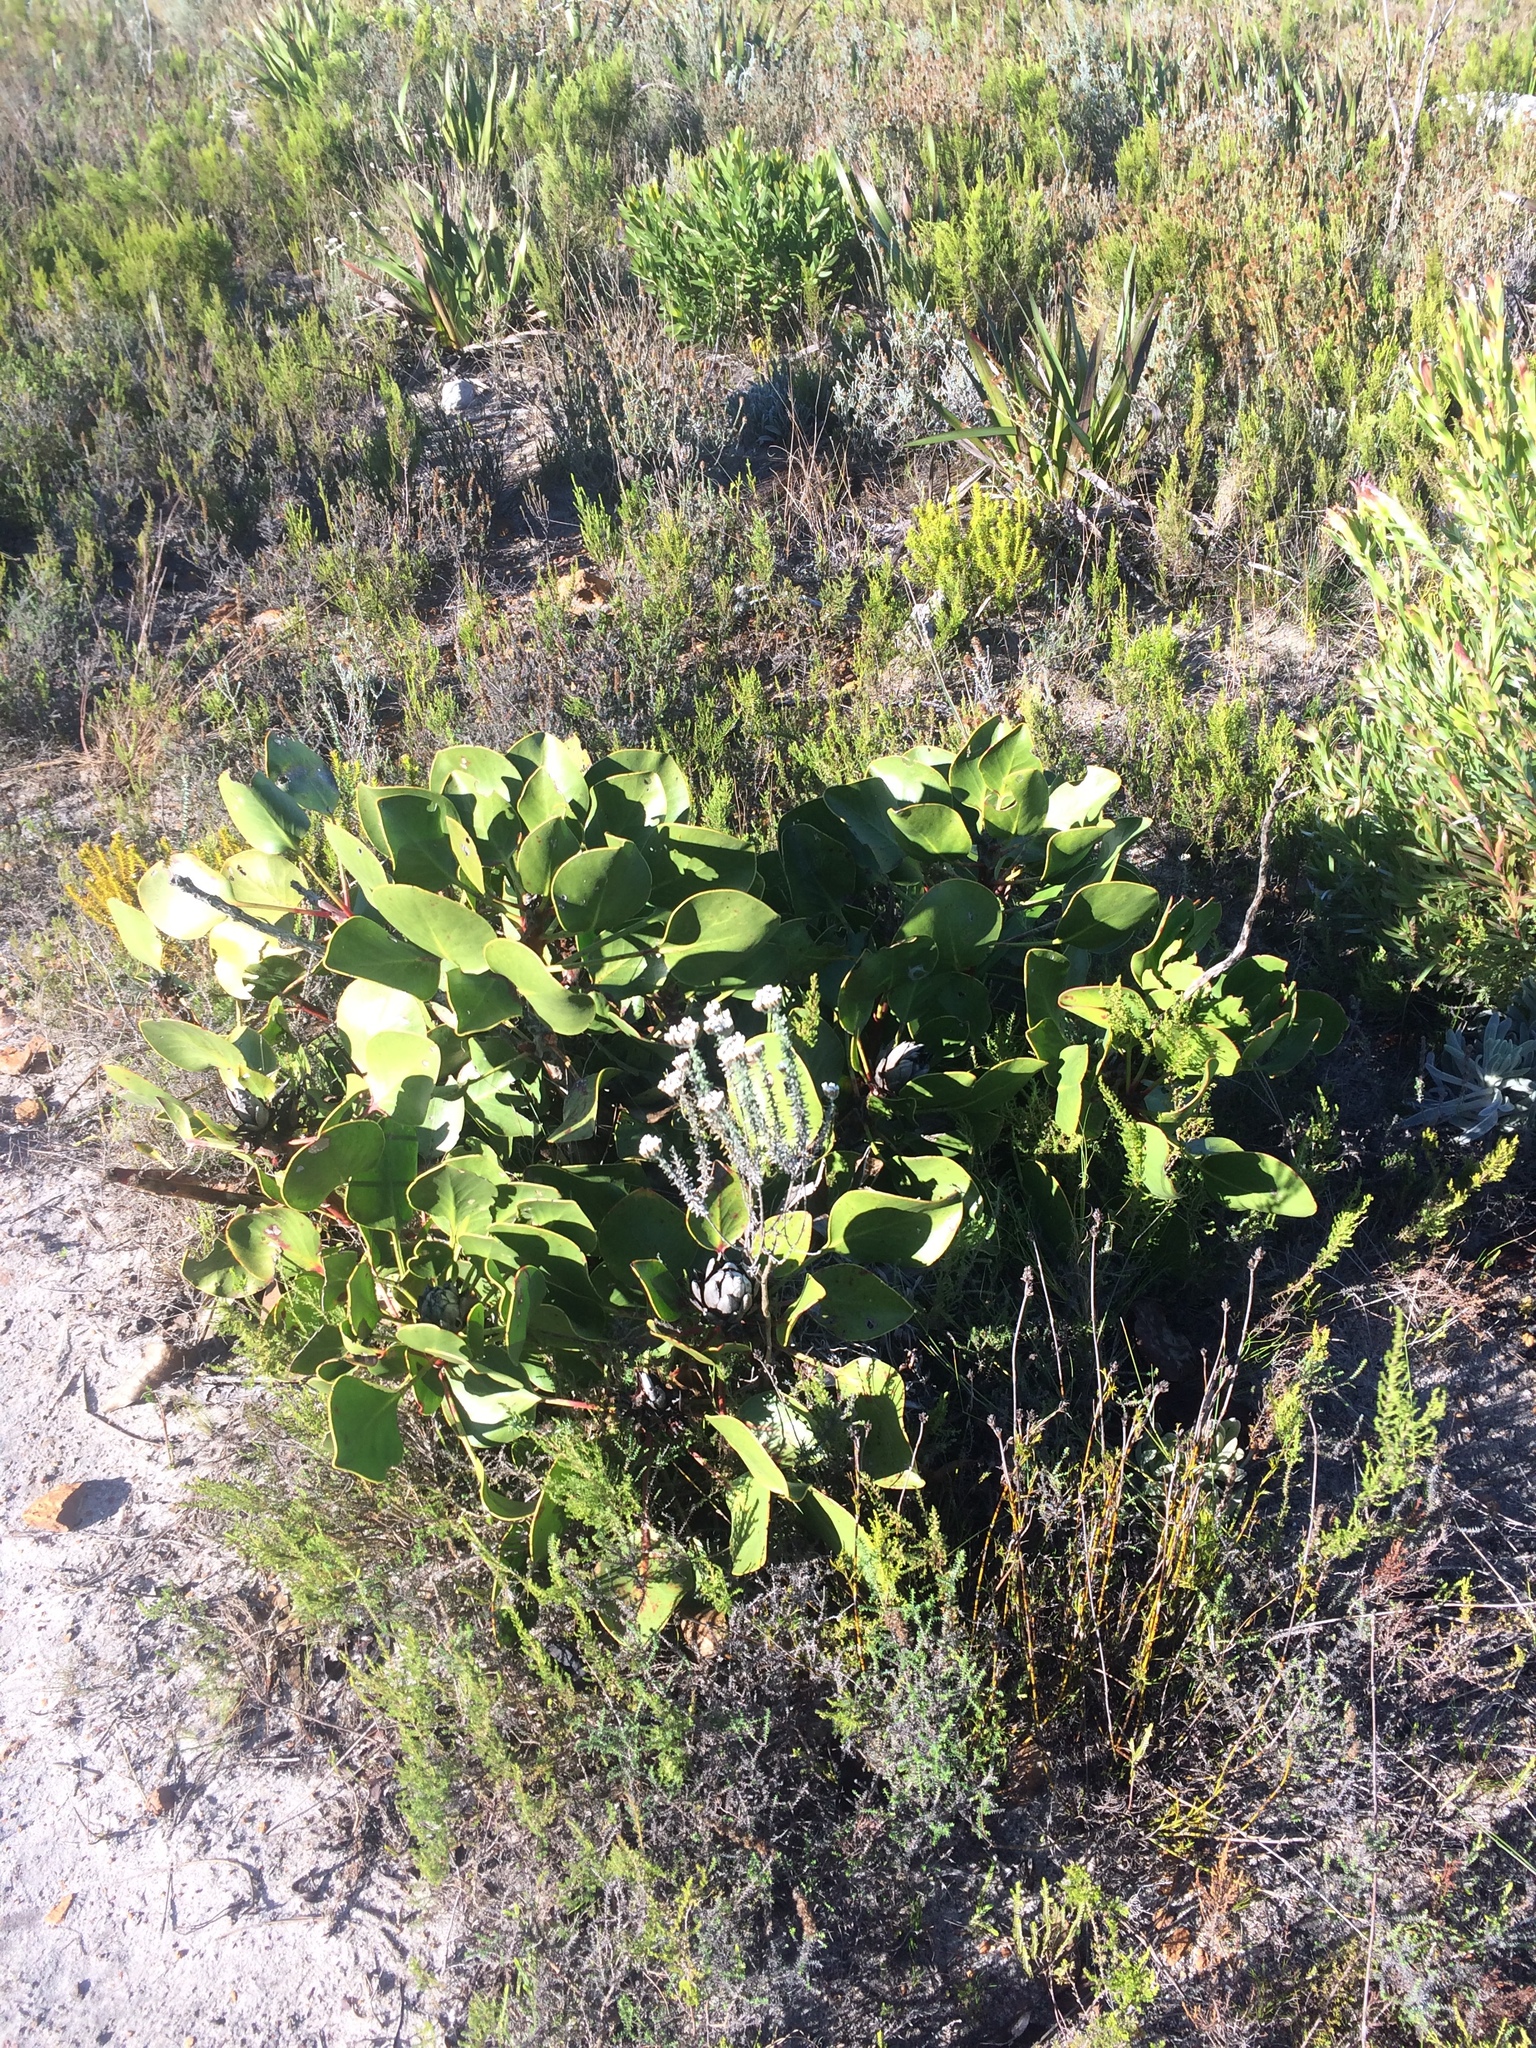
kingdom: Plantae
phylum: Tracheophyta
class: Magnoliopsida
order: Proteales
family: Proteaceae
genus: Protea
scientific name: Protea cynaroides
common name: King protea
